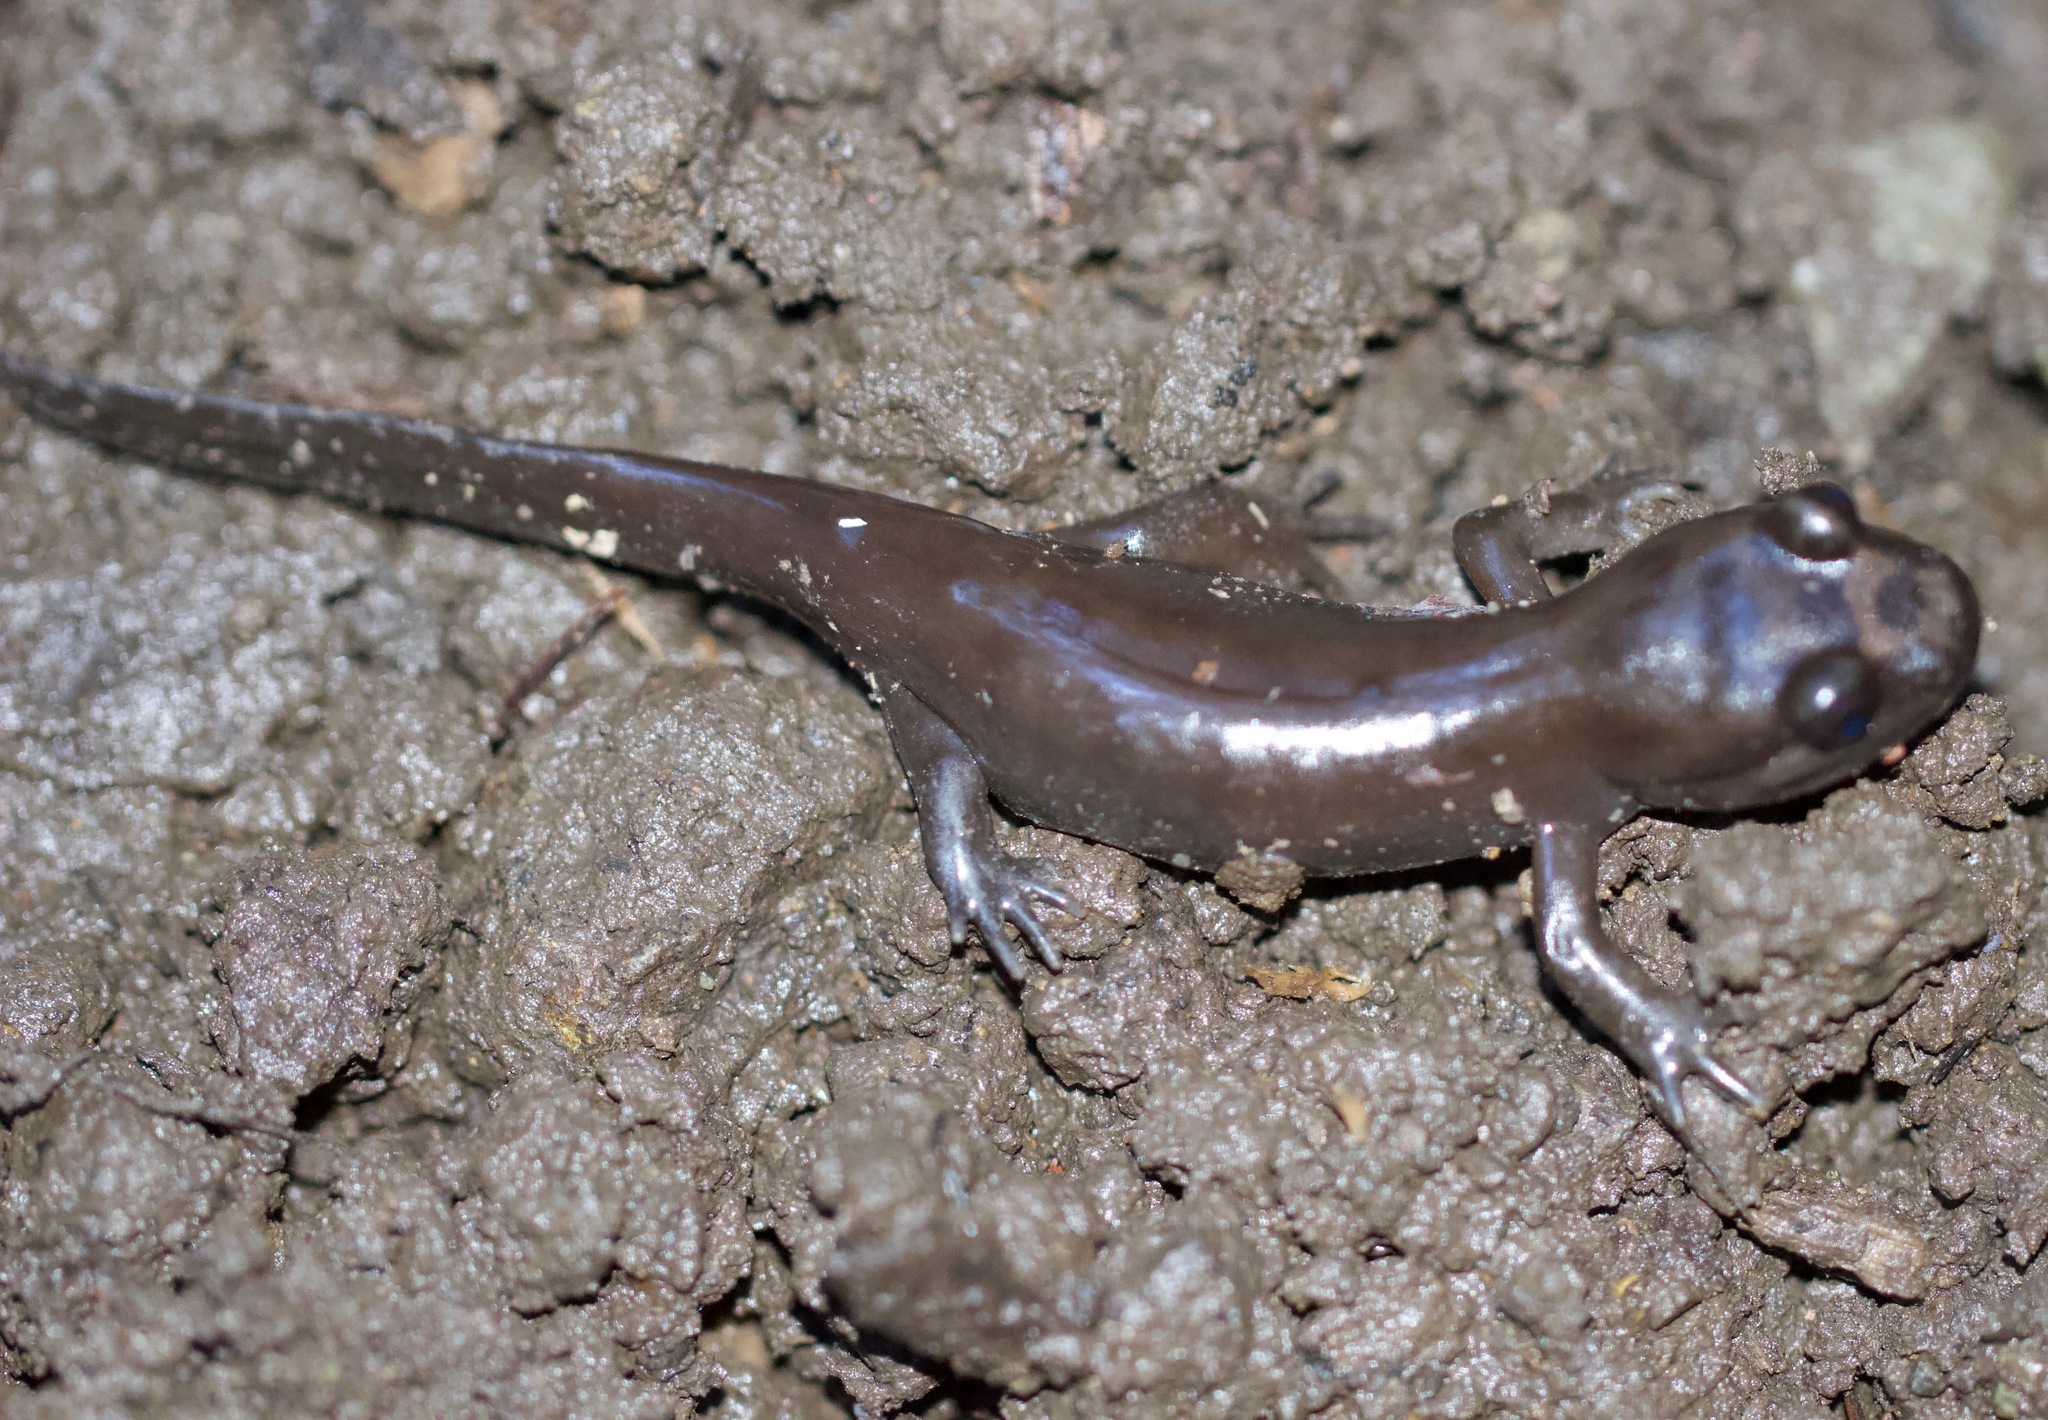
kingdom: Animalia
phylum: Chordata
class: Amphibia
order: Caudata
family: Ambystomatidae
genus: Dicamptodon
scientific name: Dicamptodon ensatus
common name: California giant salamander
